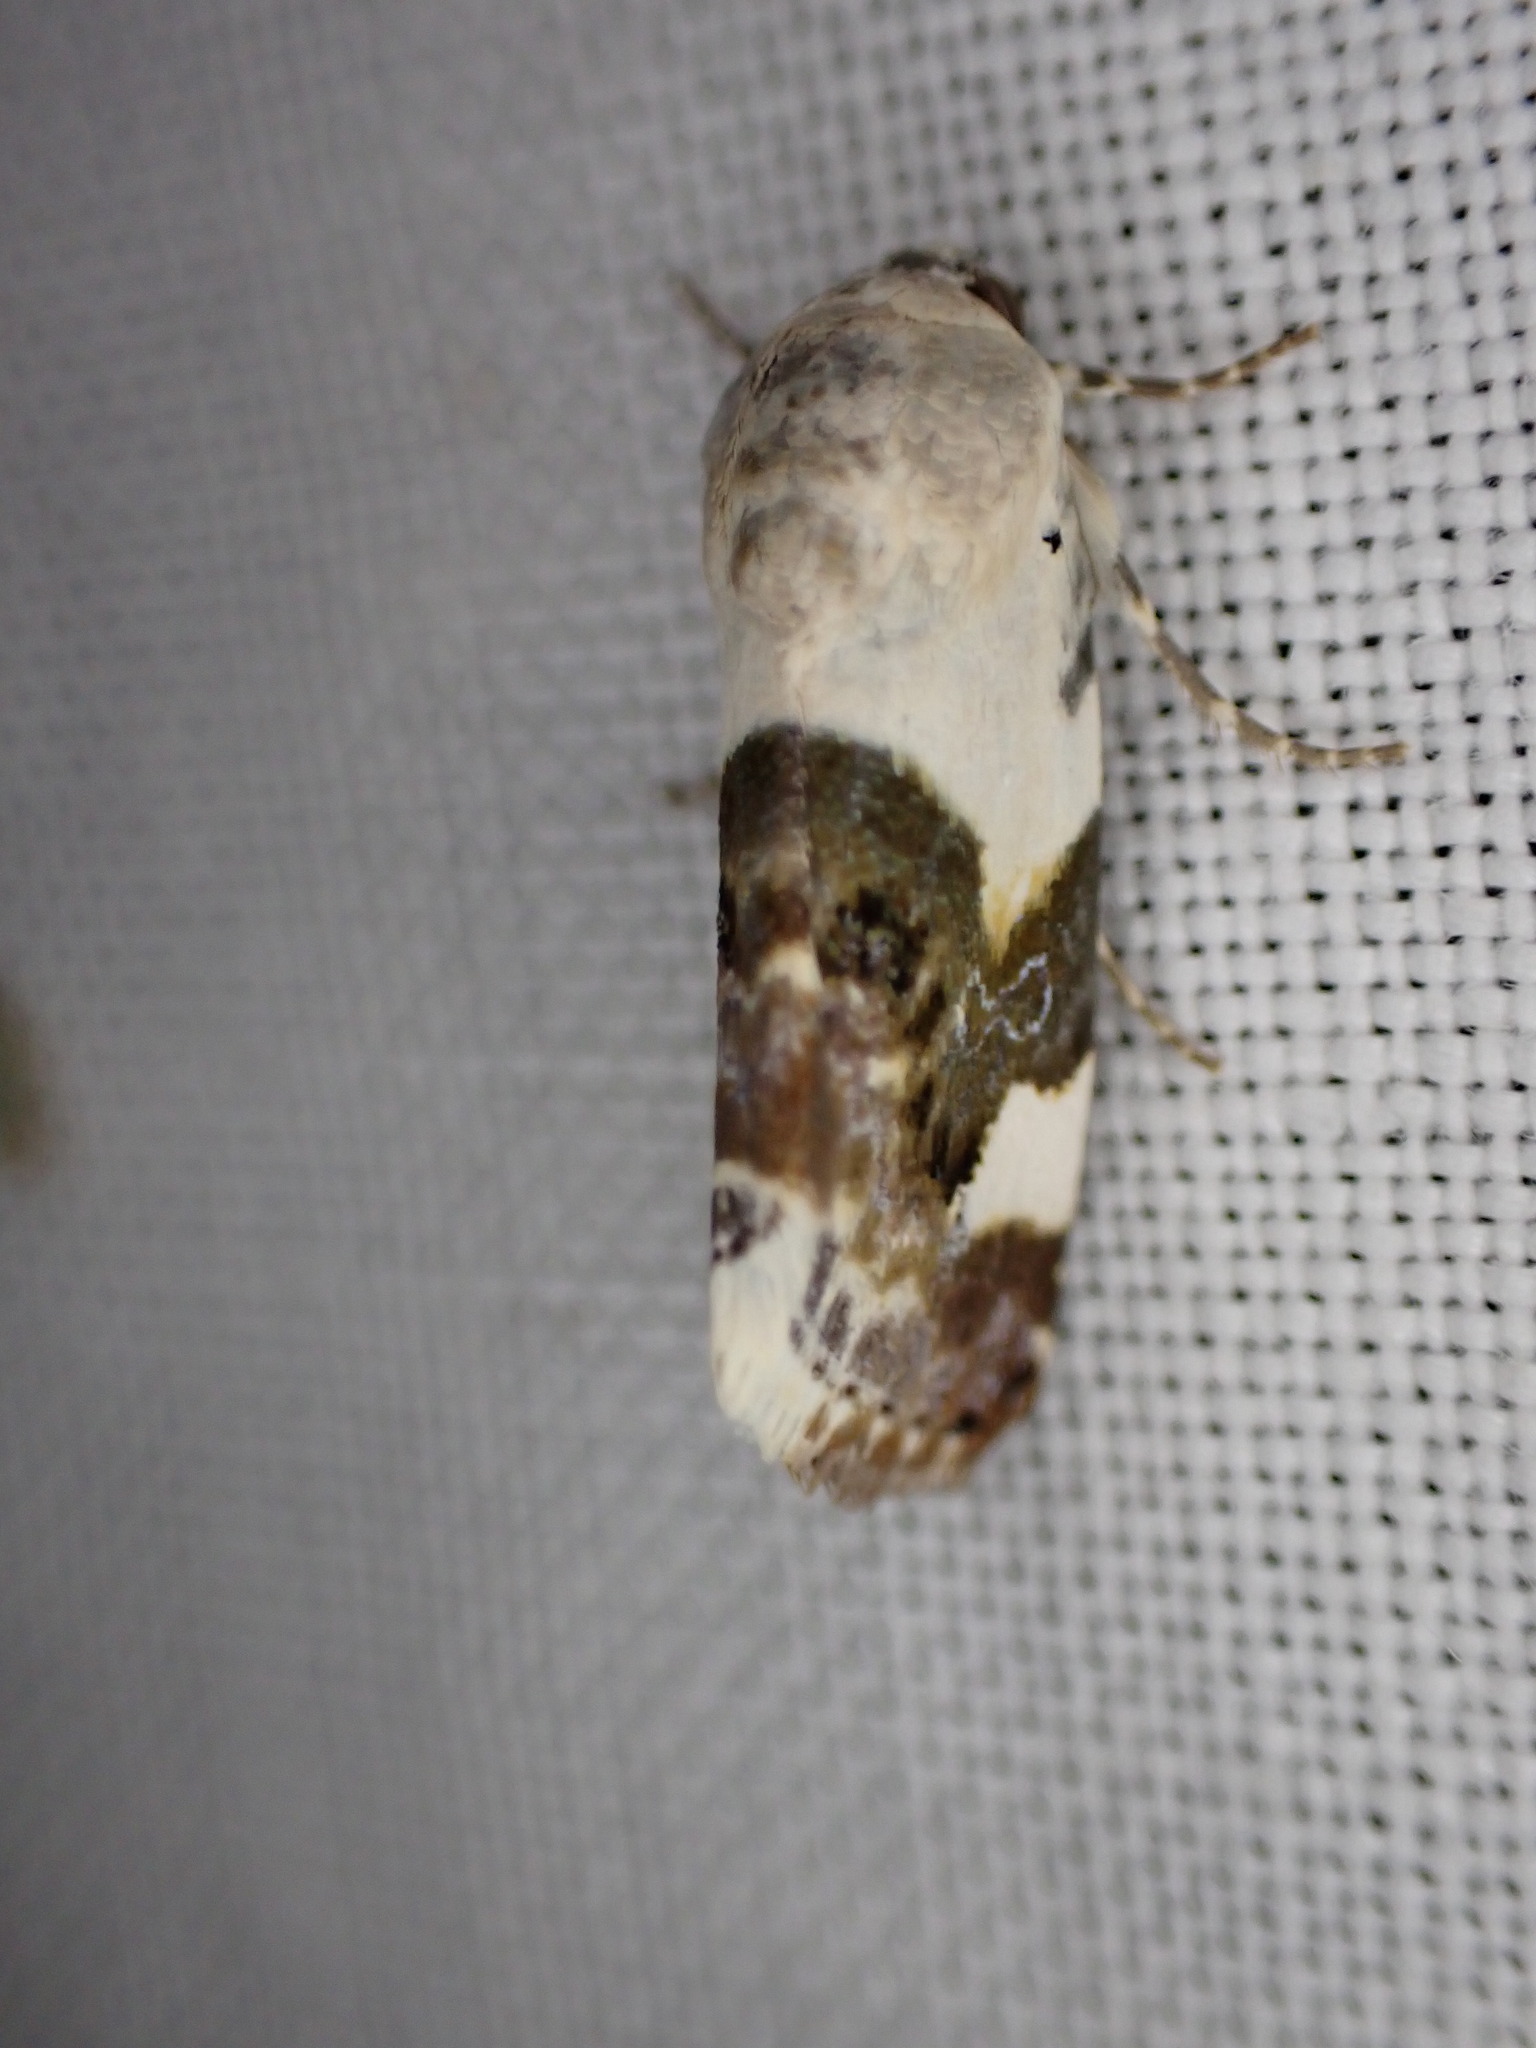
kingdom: Animalia
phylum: Arthropoda
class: Insecta
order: Lepidoptera
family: Noctuidae
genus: Acontia
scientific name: Acontia lucida
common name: Pale shoulder
